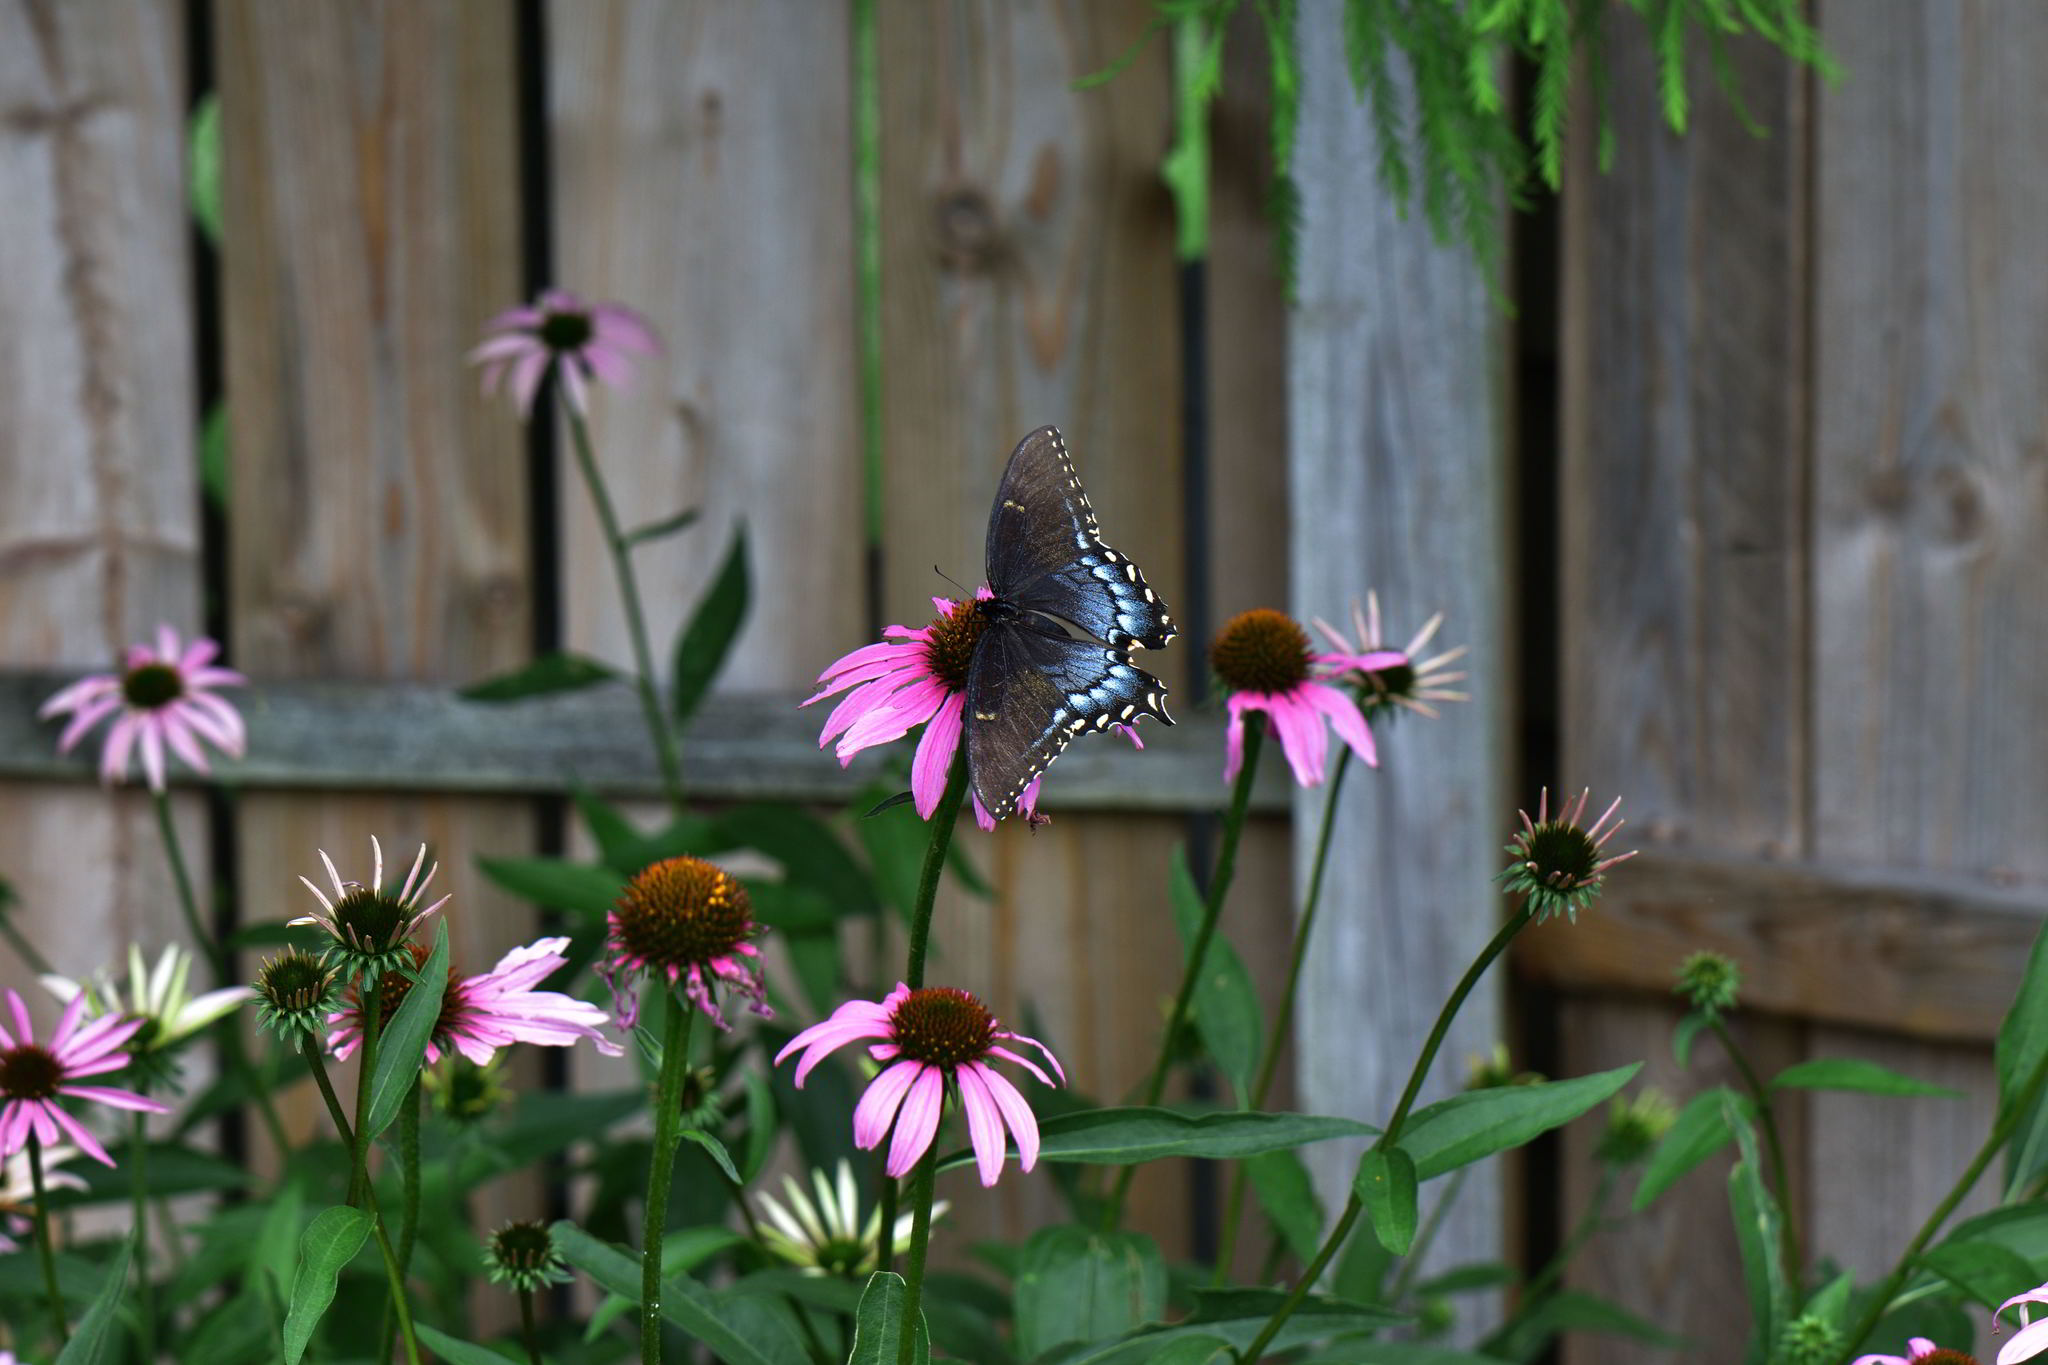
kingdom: Animalia
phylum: Arthropoda
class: Insecta
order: Lepidoptera
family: Papilionidae
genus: Papilio
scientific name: Papilio glaucus
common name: Tiger swallowtail
